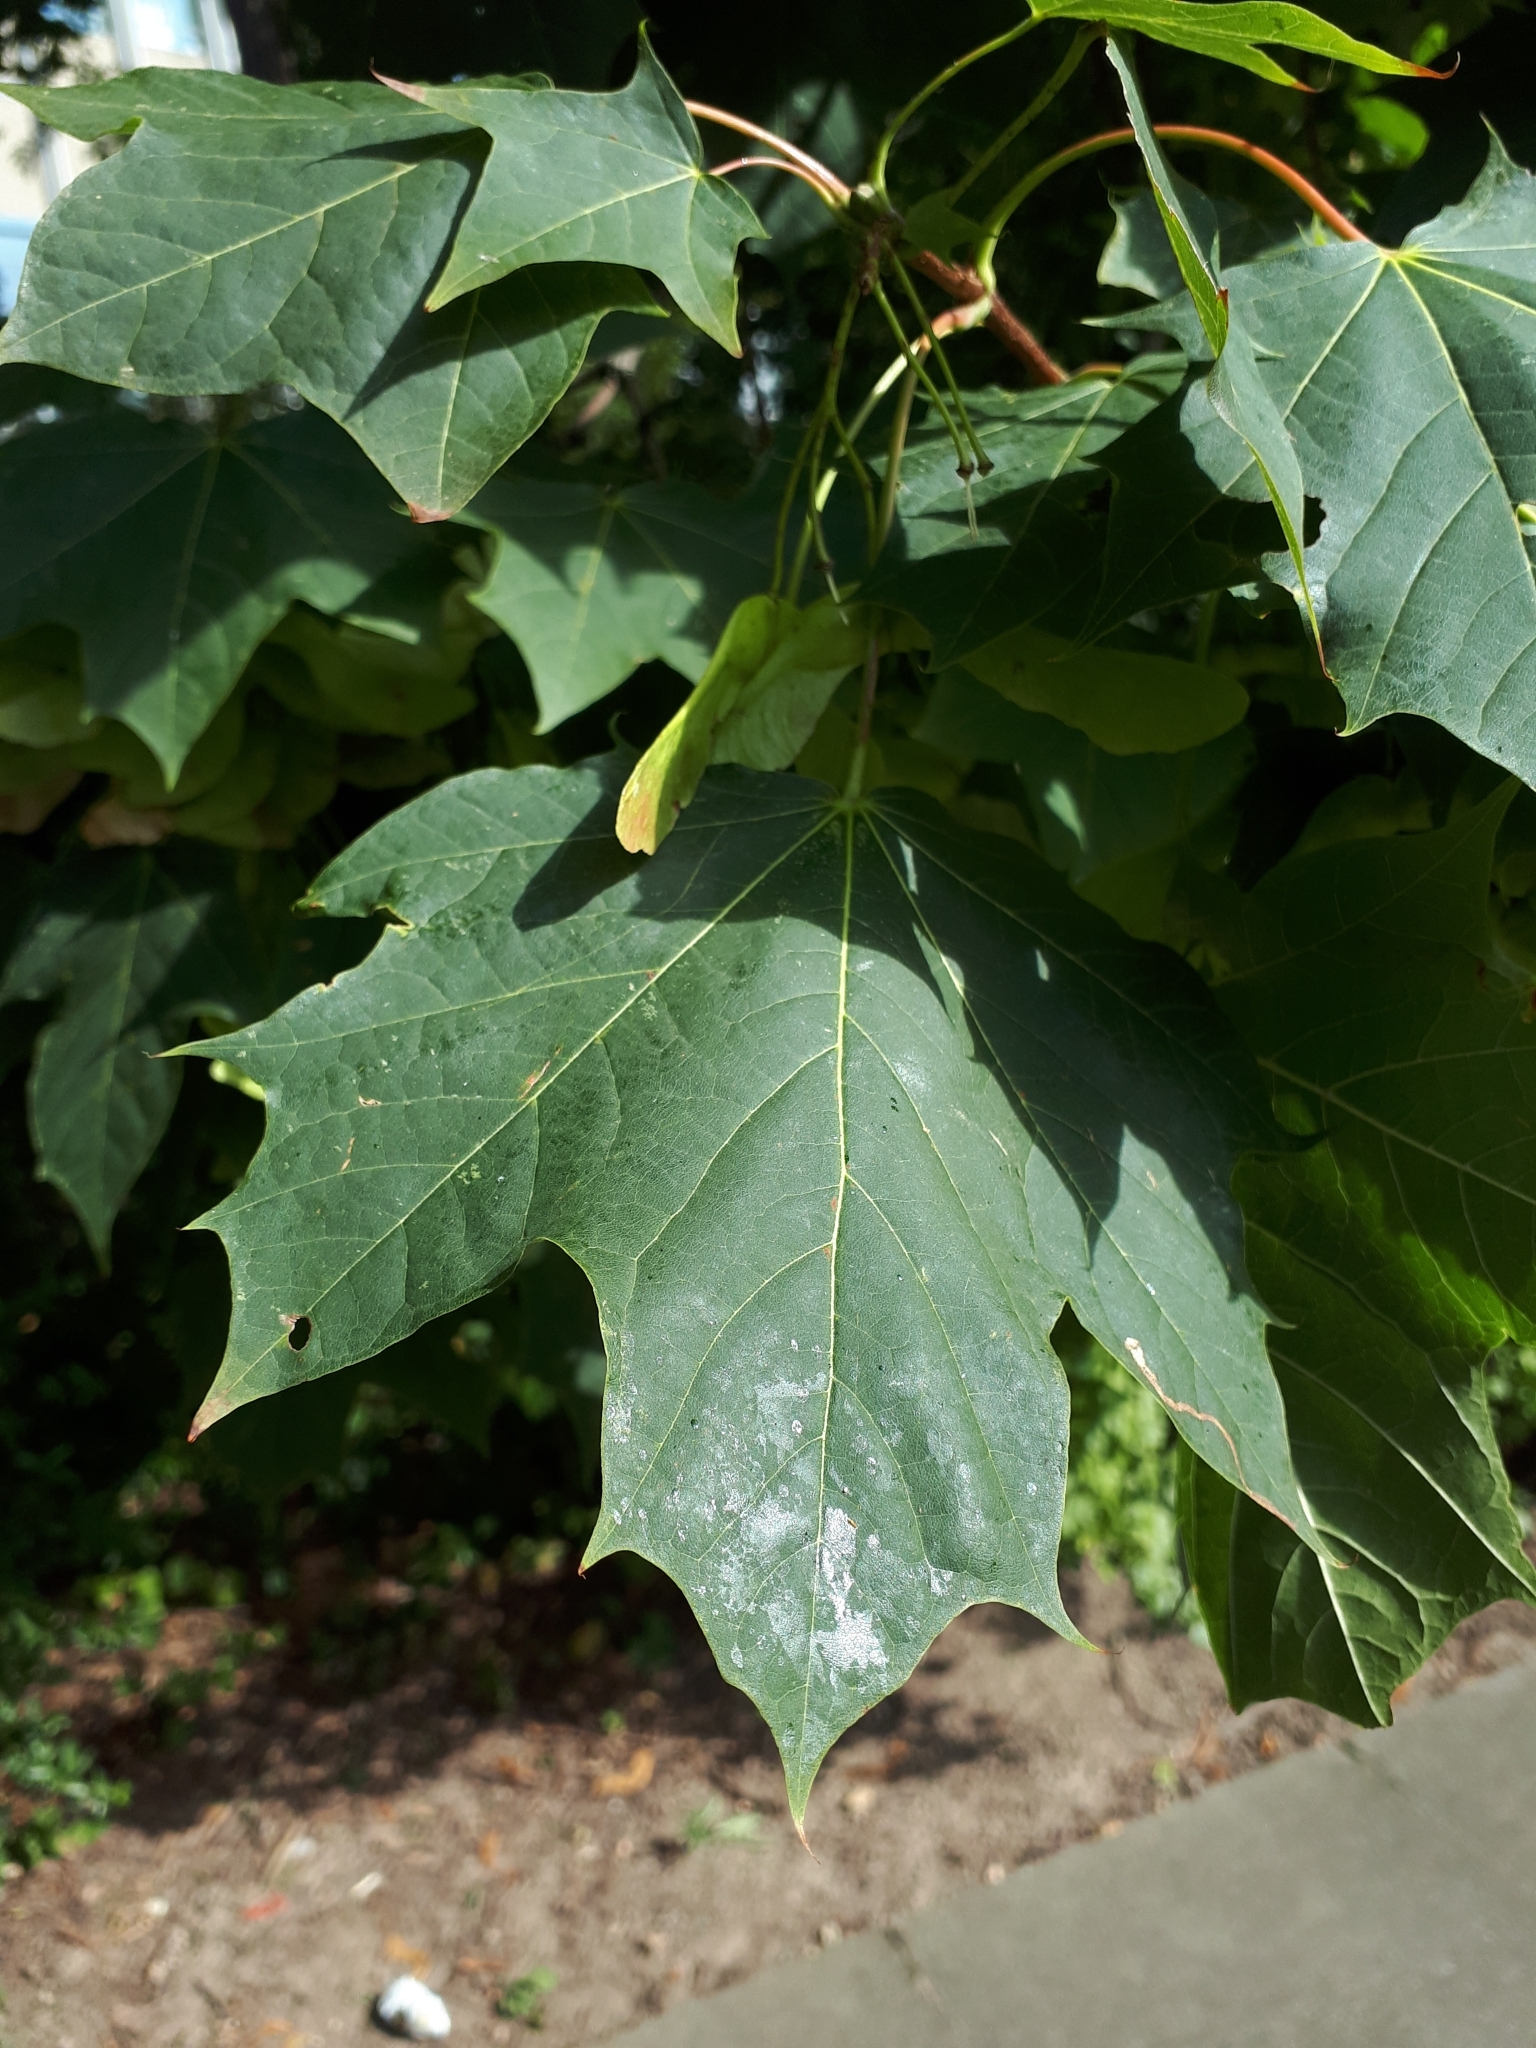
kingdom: Plantae
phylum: Tracheophyta
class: Magnoliopsida
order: Sapindales
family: Sapindaceae
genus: Acer
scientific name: Acer platanoides
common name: Norway maple
